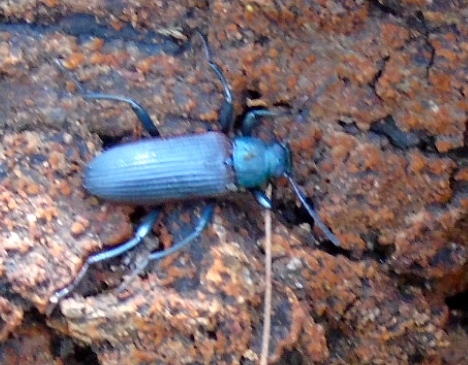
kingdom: Animalia
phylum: Arthropoda
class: Insecta
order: Coleoptera
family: Tenebrionidae
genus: Strongylium
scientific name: Strongylium
